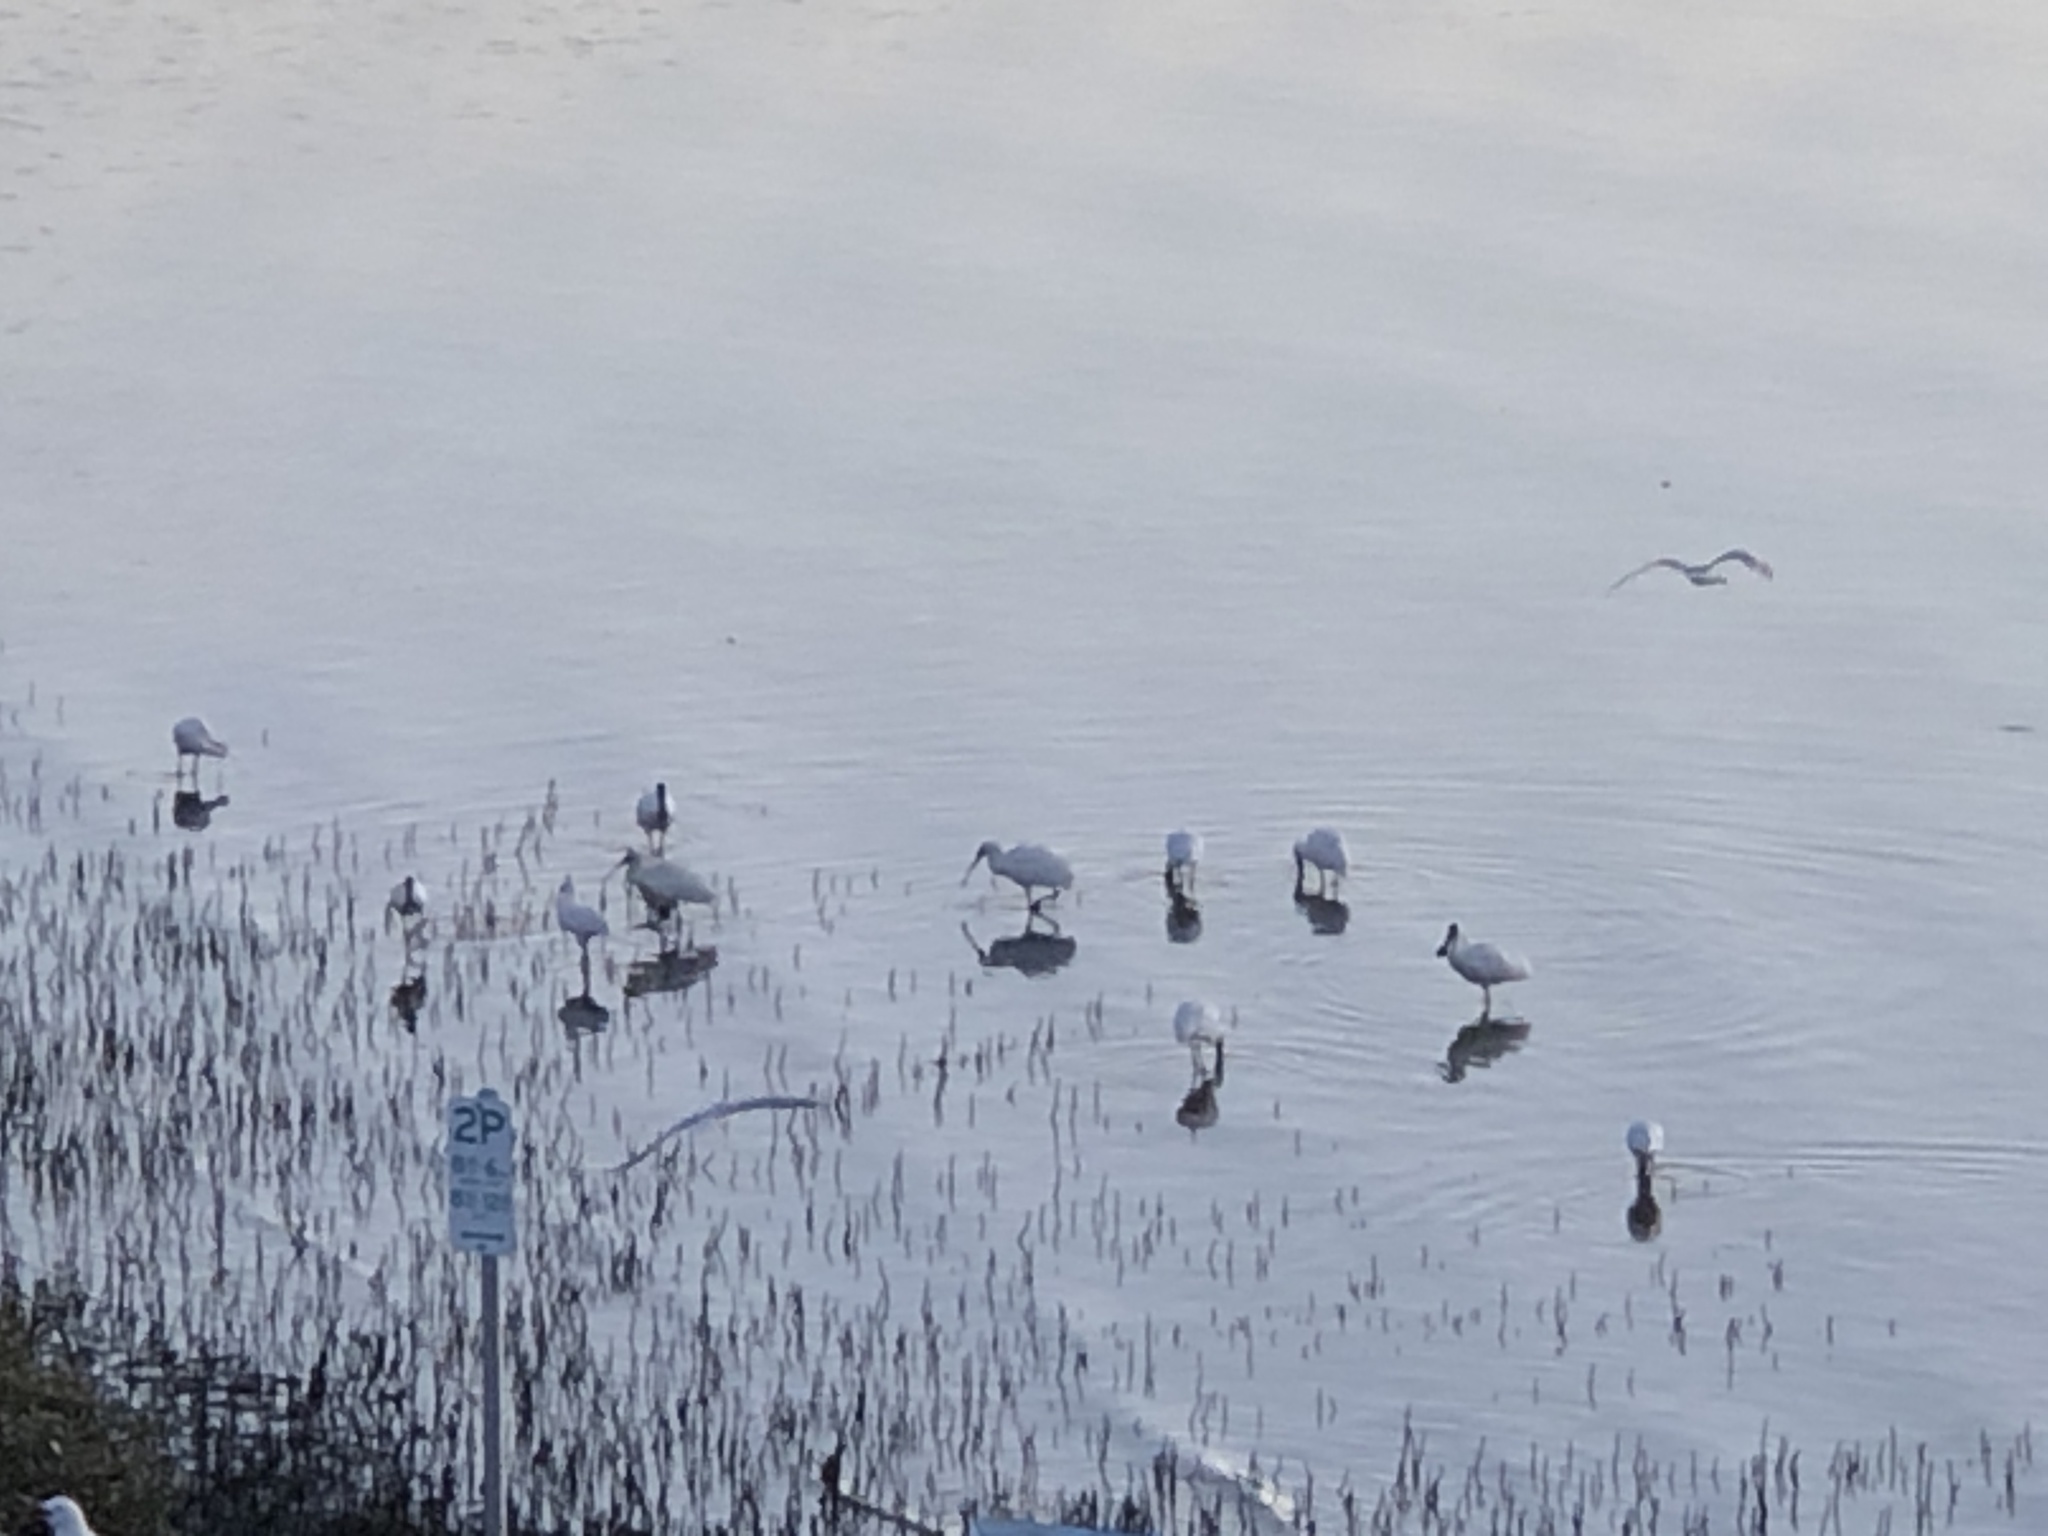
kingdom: Animalia
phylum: Chordata
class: Aves
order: Pelecaniformes
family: Threskiornithidae
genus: Platalea
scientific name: Platalea regia
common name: Royal spoonbill
